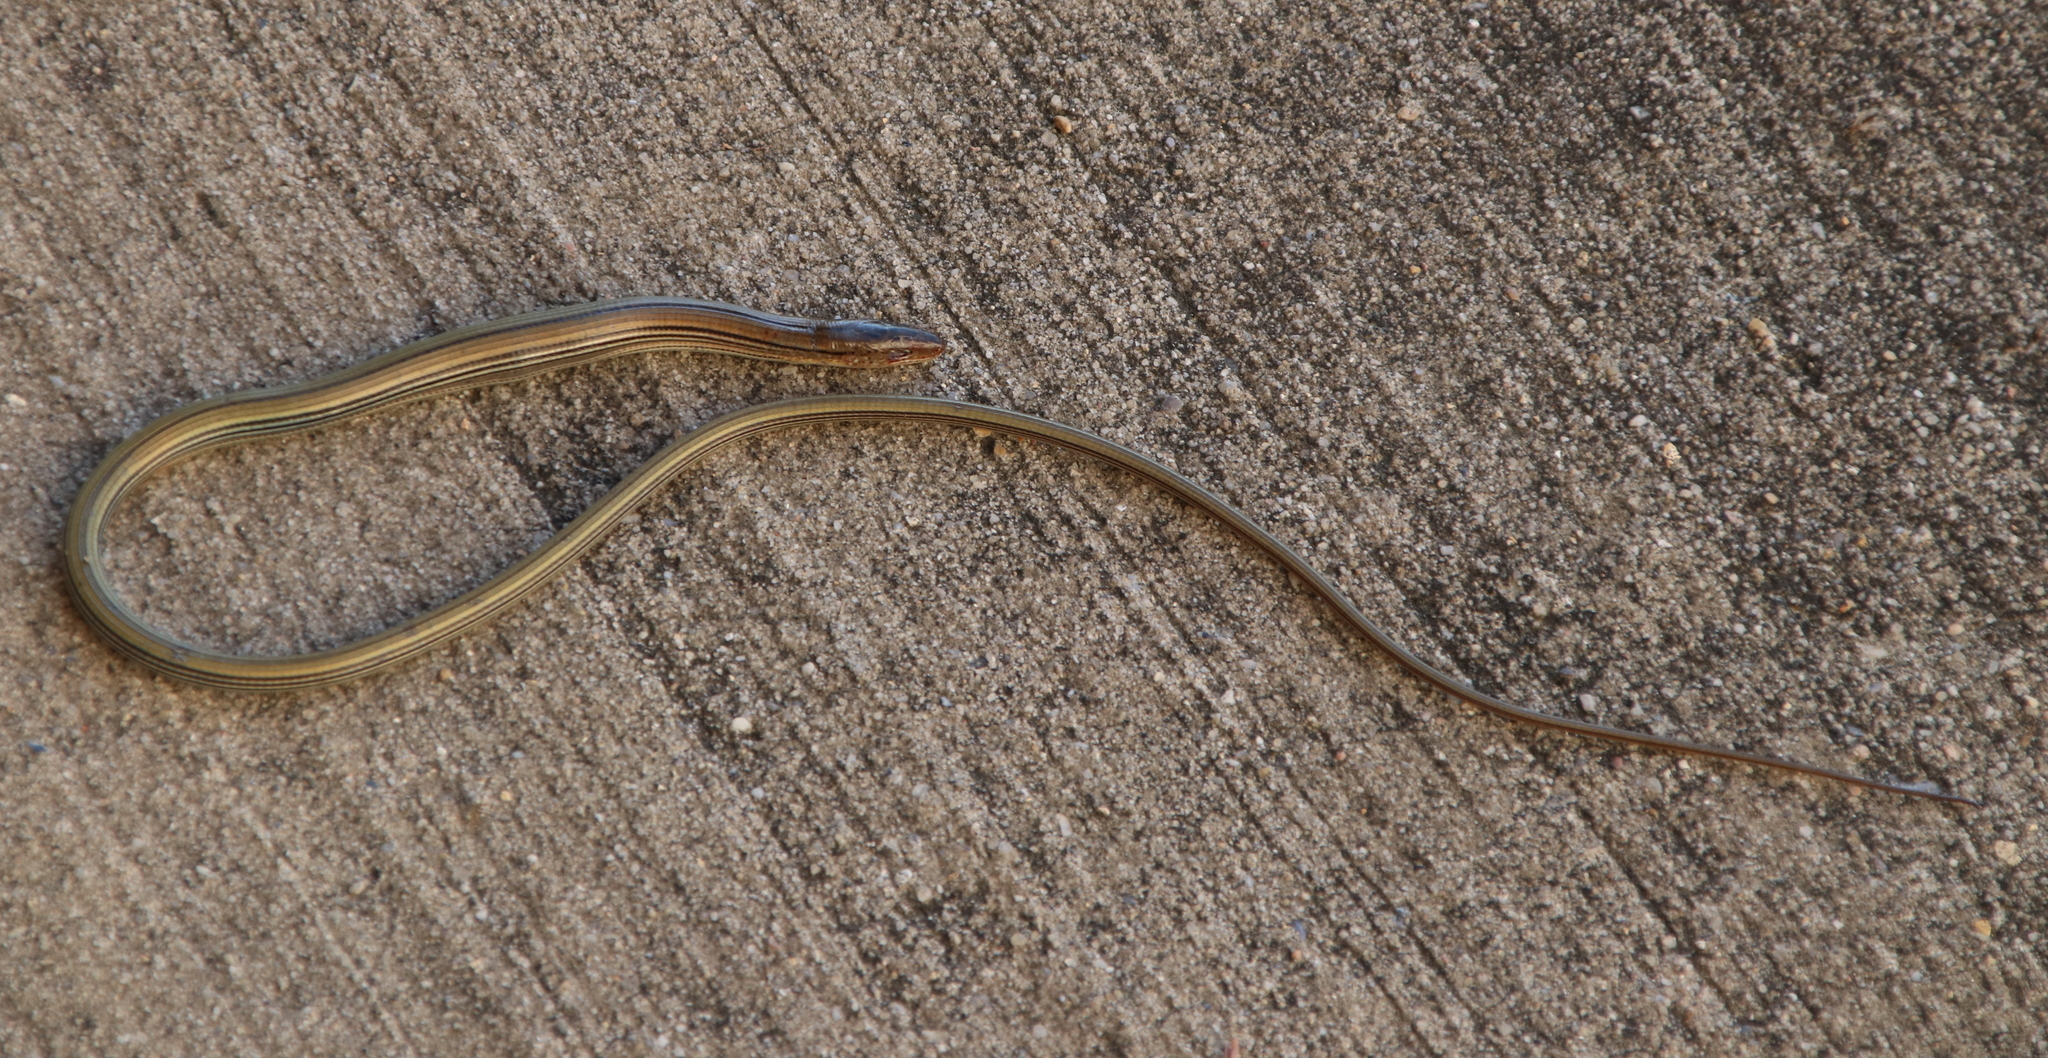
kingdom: Animalia
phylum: Chordata
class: Squamata
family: Anguidae
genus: Ophisaurus
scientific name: Ophisaurus attenuatus
